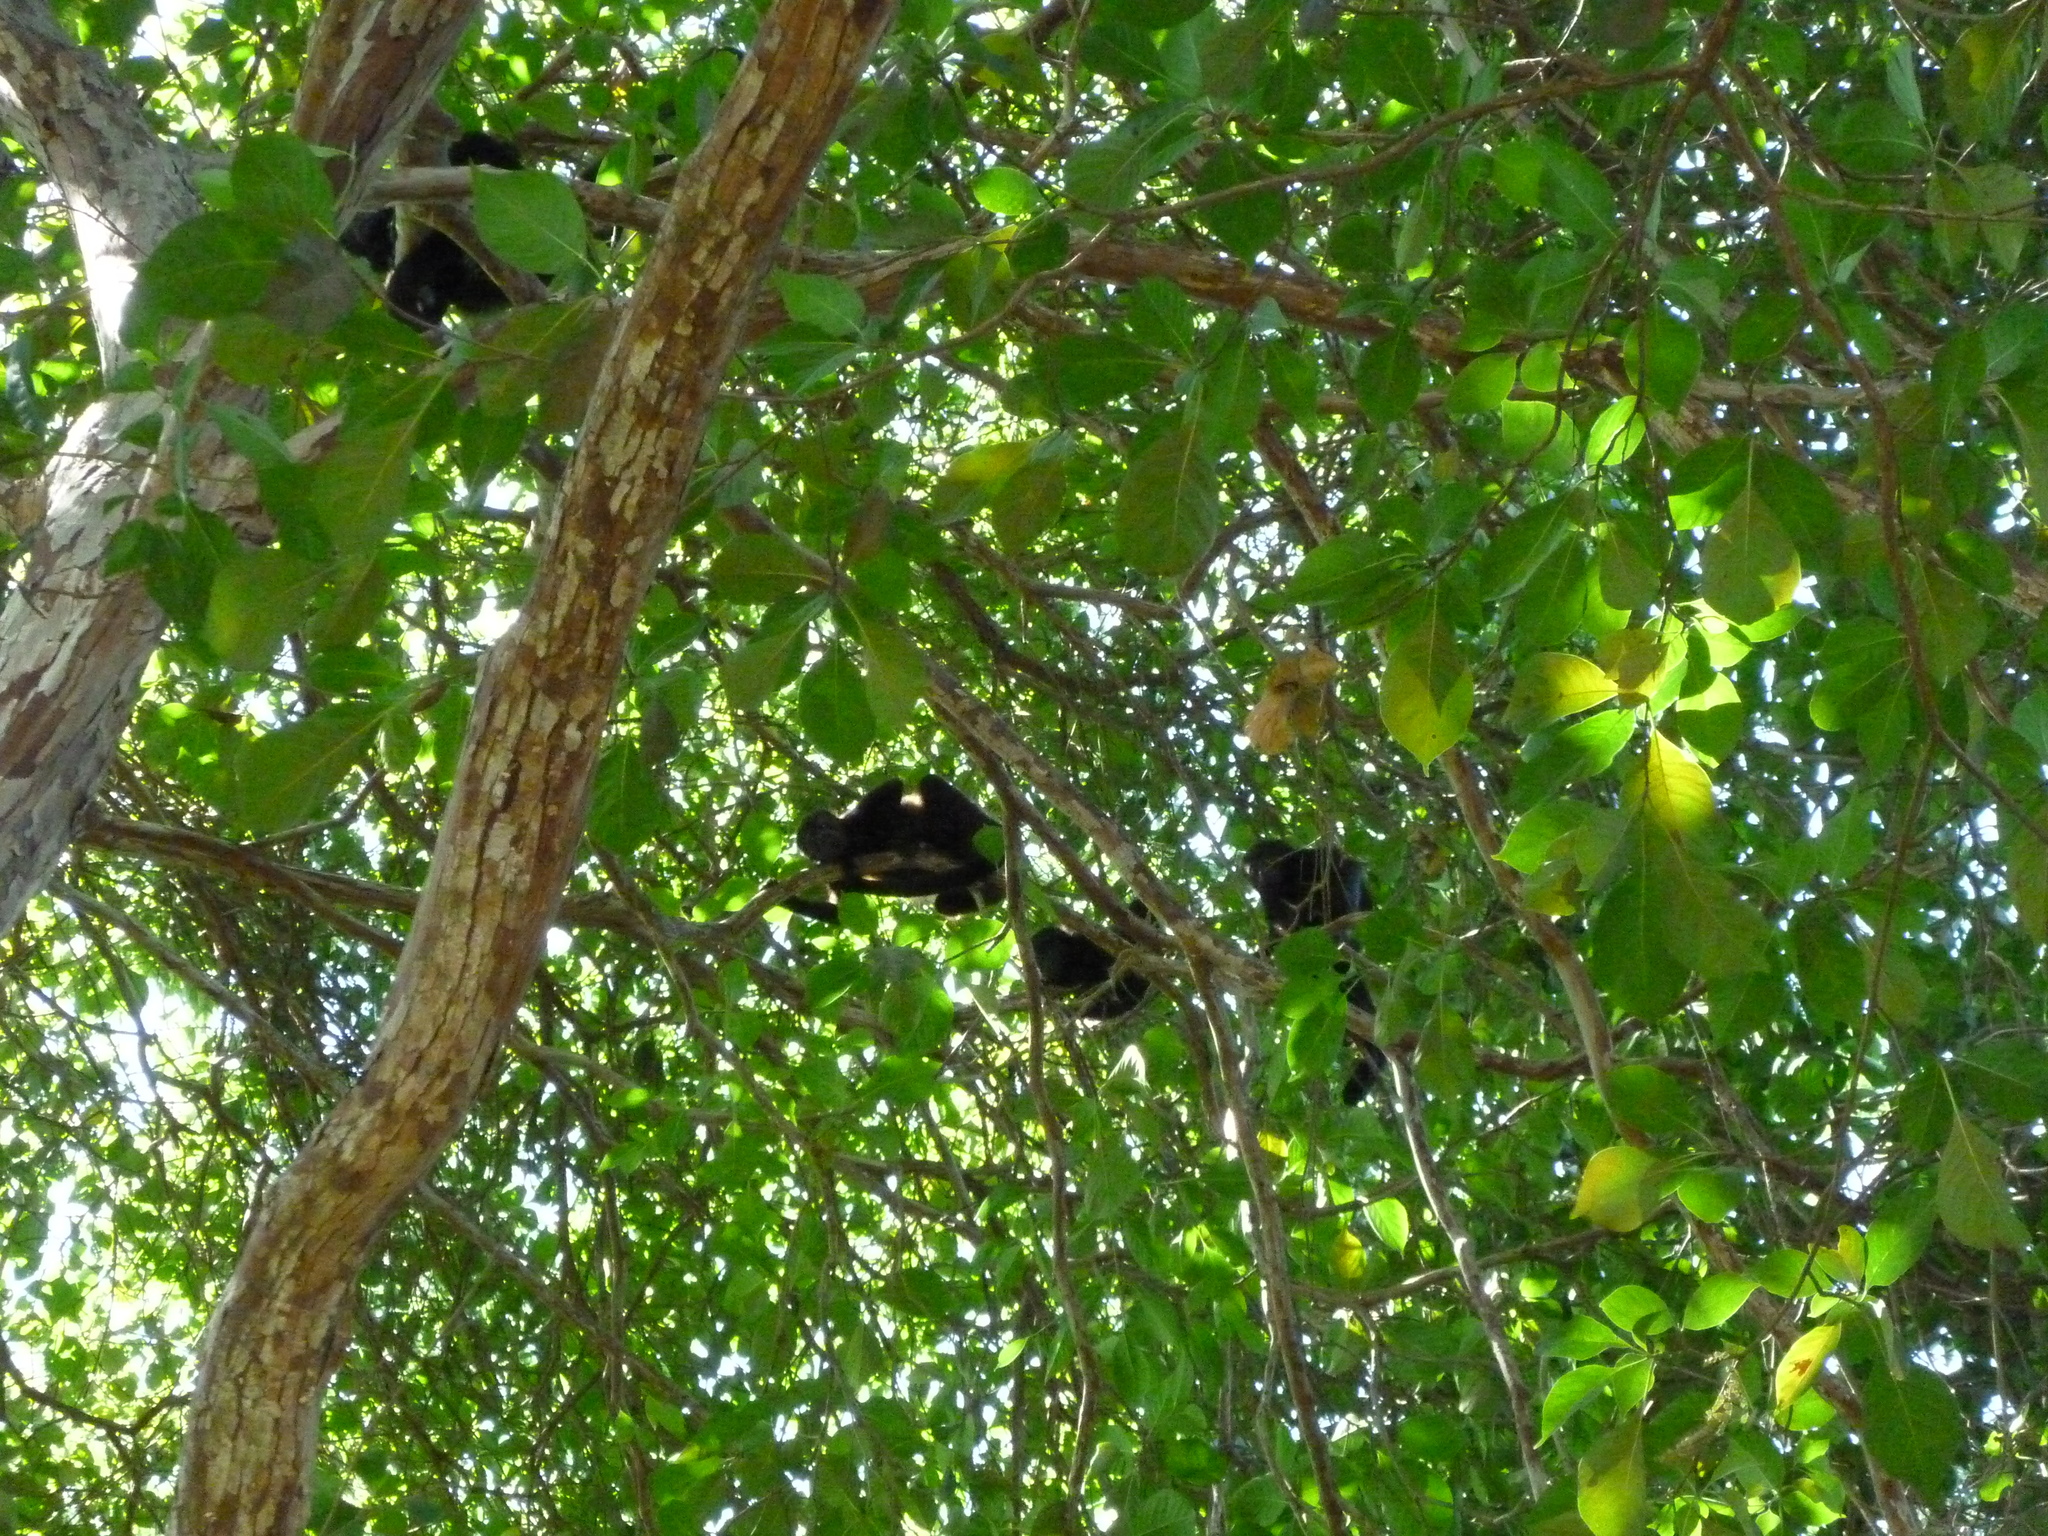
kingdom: Animalia
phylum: Chordata
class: Mammalia
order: Primates
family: Atelidae
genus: Alouatta
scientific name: Alouatta palliata
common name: Mantled howler
